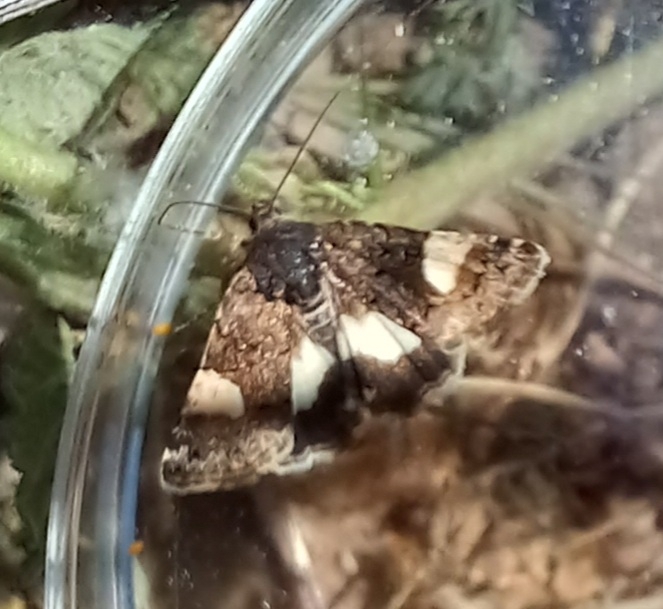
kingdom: Animalia
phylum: Arthropoda
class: Insecta
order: Lepidoptera
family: Erebidae
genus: Tyta
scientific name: Tyta luctuosa
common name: Four-spotted
